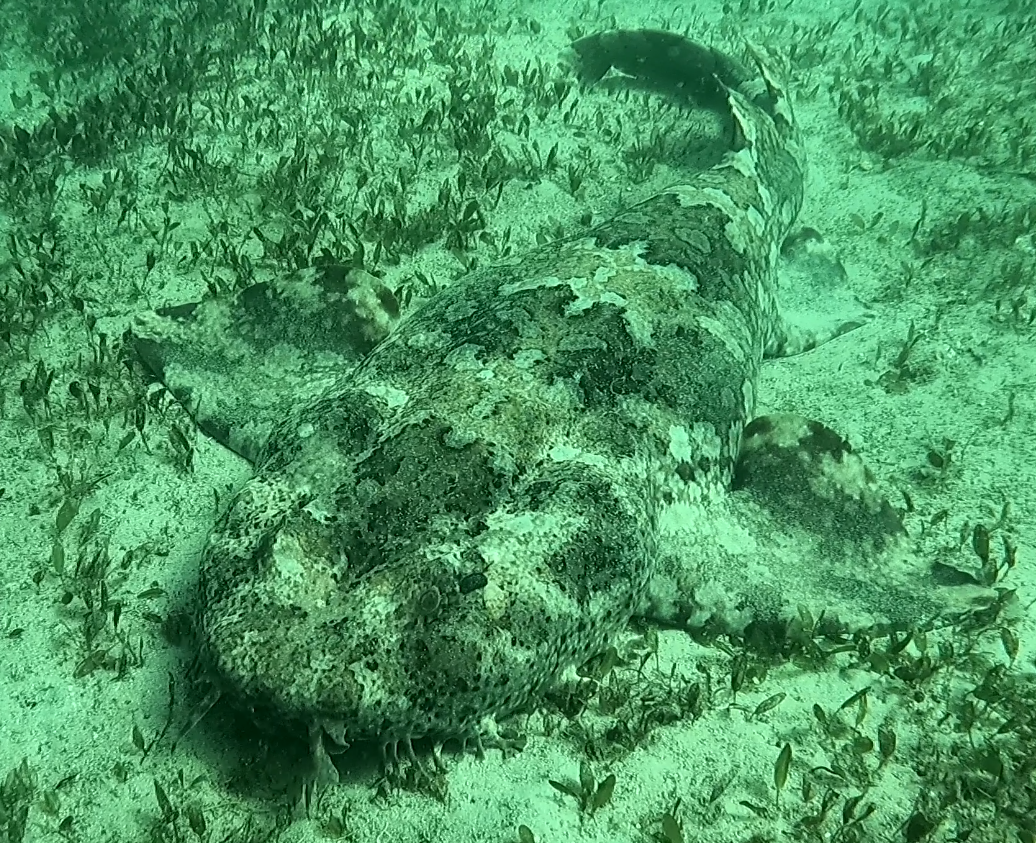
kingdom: Animalia
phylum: Chordata
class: Elasmobranchii
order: Orectolobiformes
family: Orectolobidae
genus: Orectolobus
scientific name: Orectolobus halei
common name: Banded wobbegong
